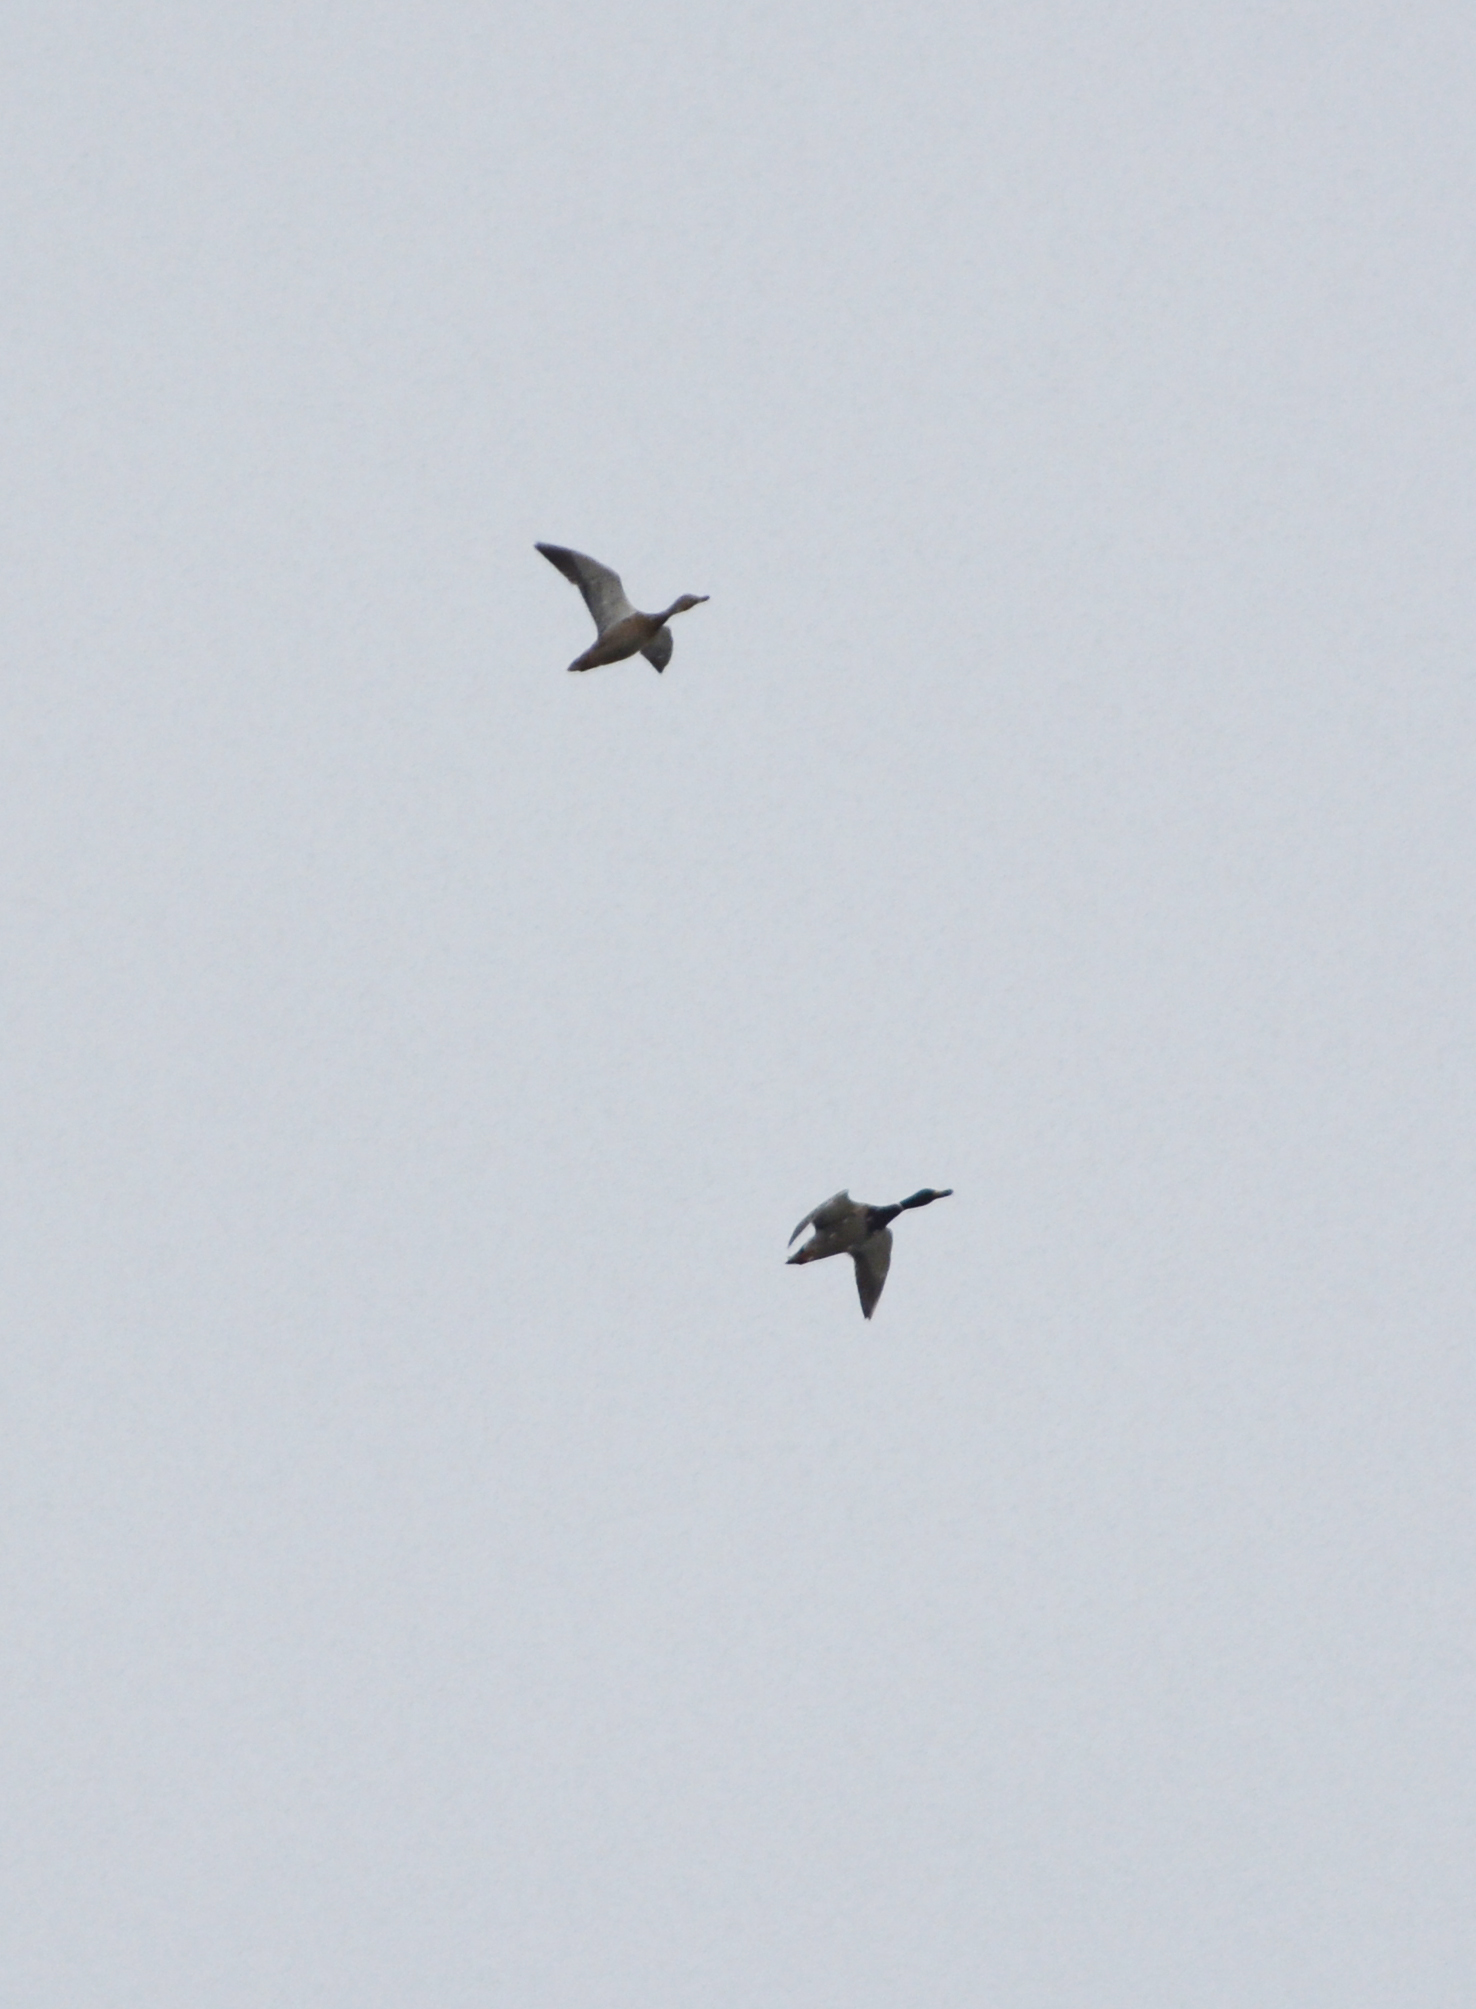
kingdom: Animalia
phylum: Chordata
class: Aves
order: Anseriformes
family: Anatidae
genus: Anas
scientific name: Anas platyrhynchos
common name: Mallard
